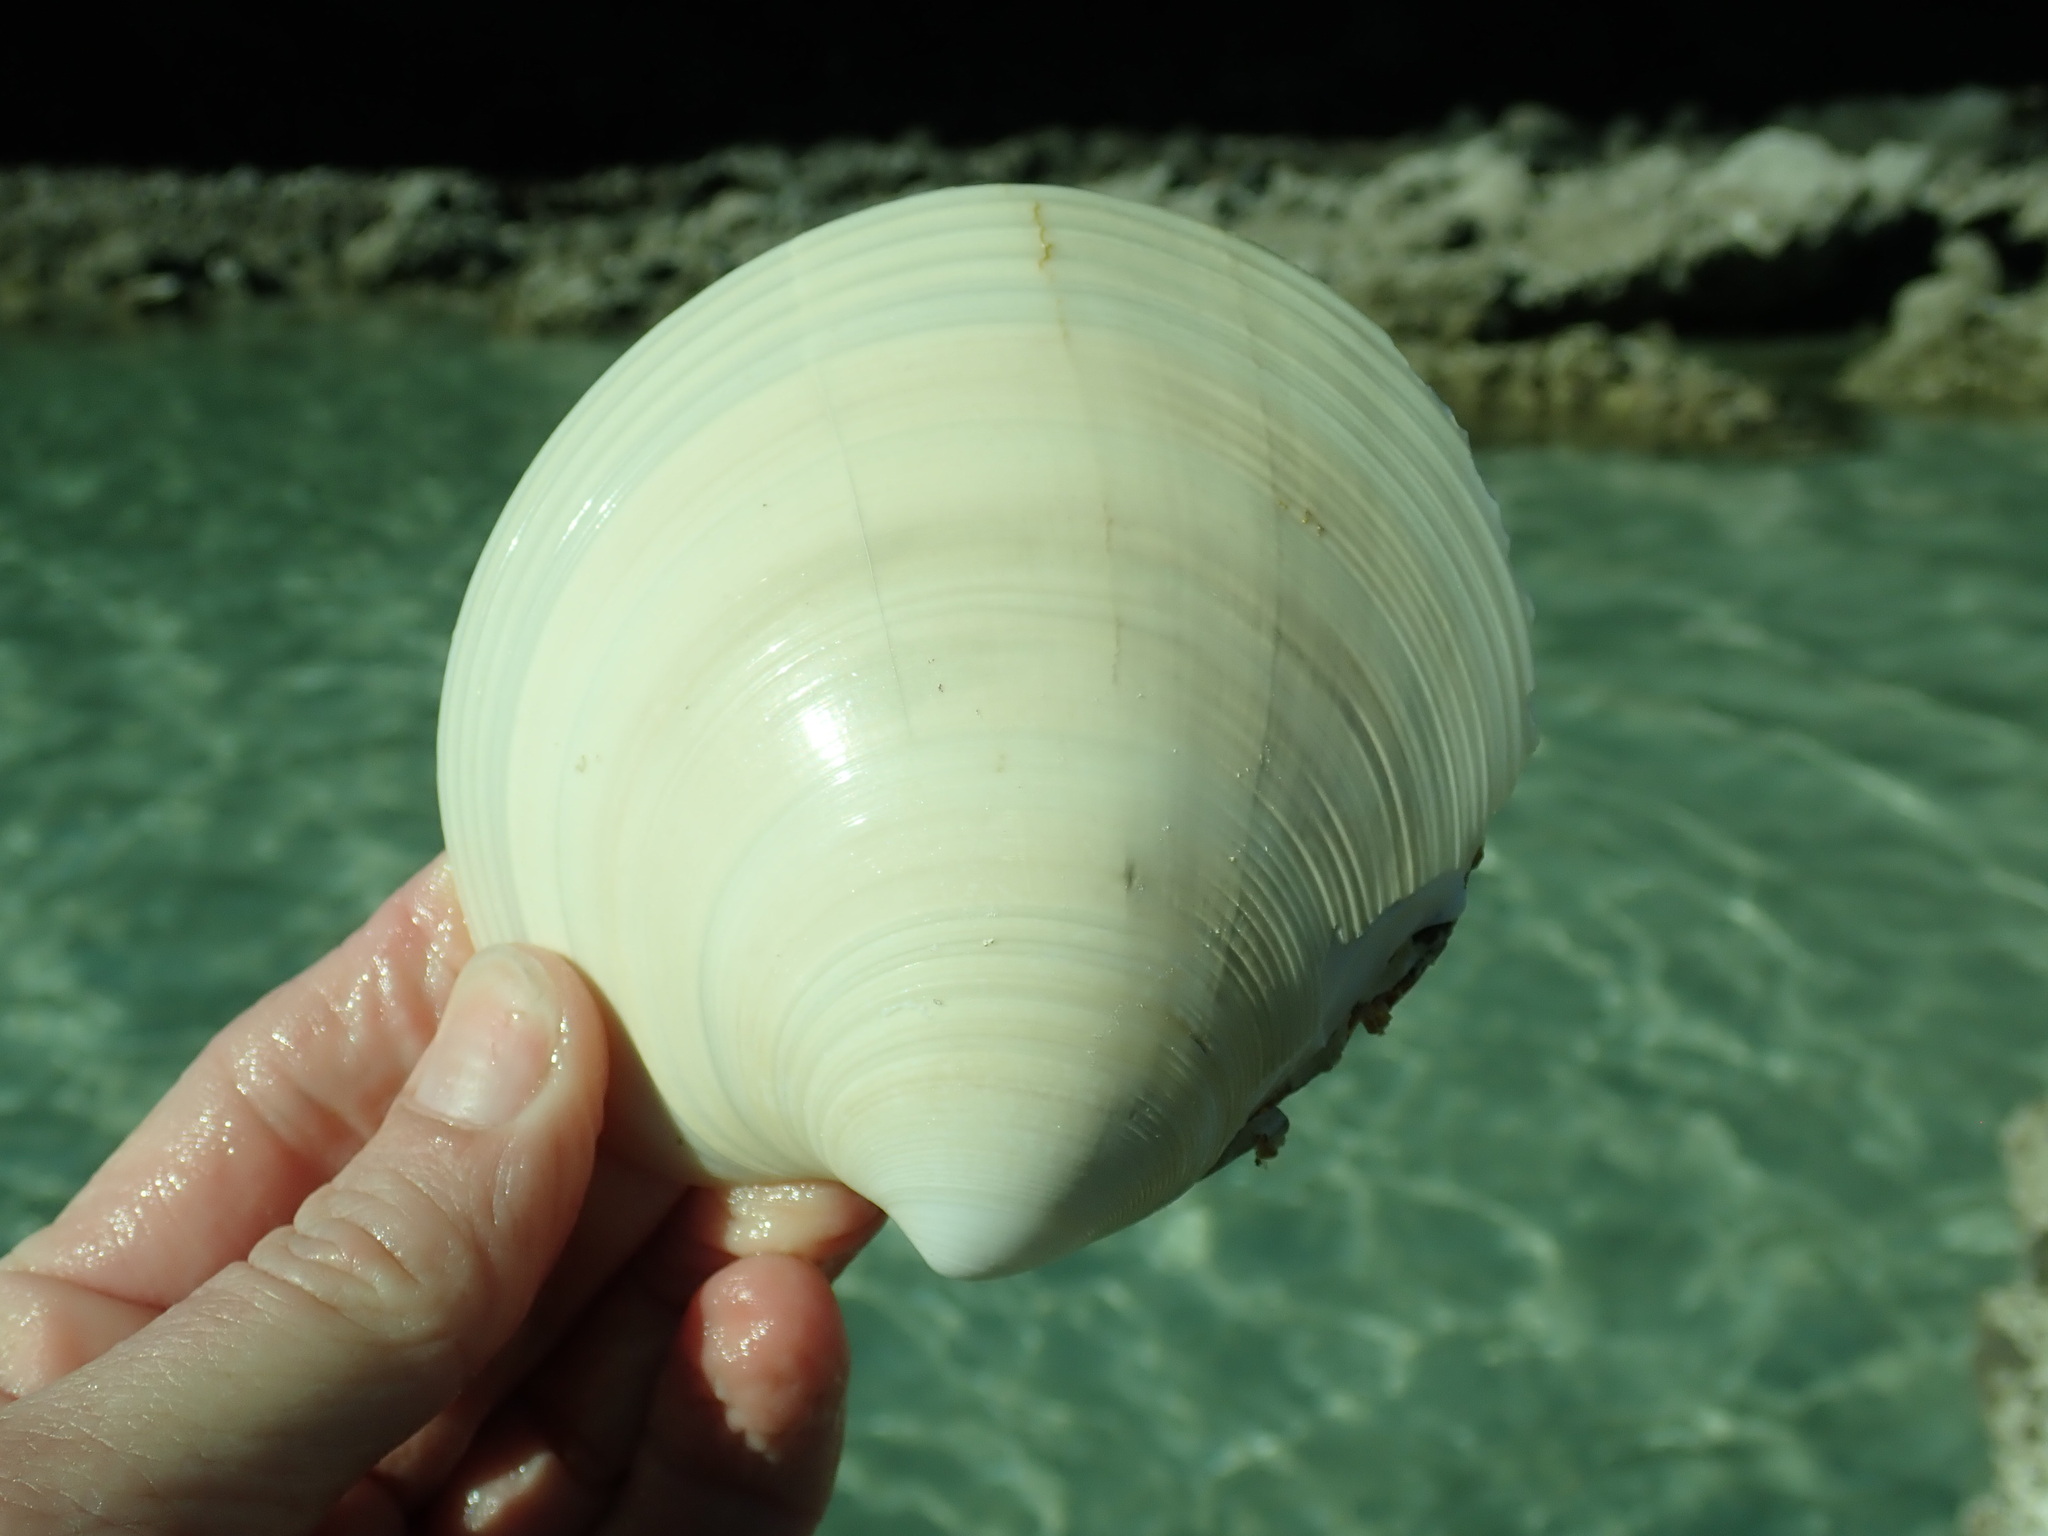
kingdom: Animalia
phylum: Mollusca
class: Bivalvia
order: Venerida
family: Veneridae
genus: Dosinia
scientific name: Dosinia ponderosa
